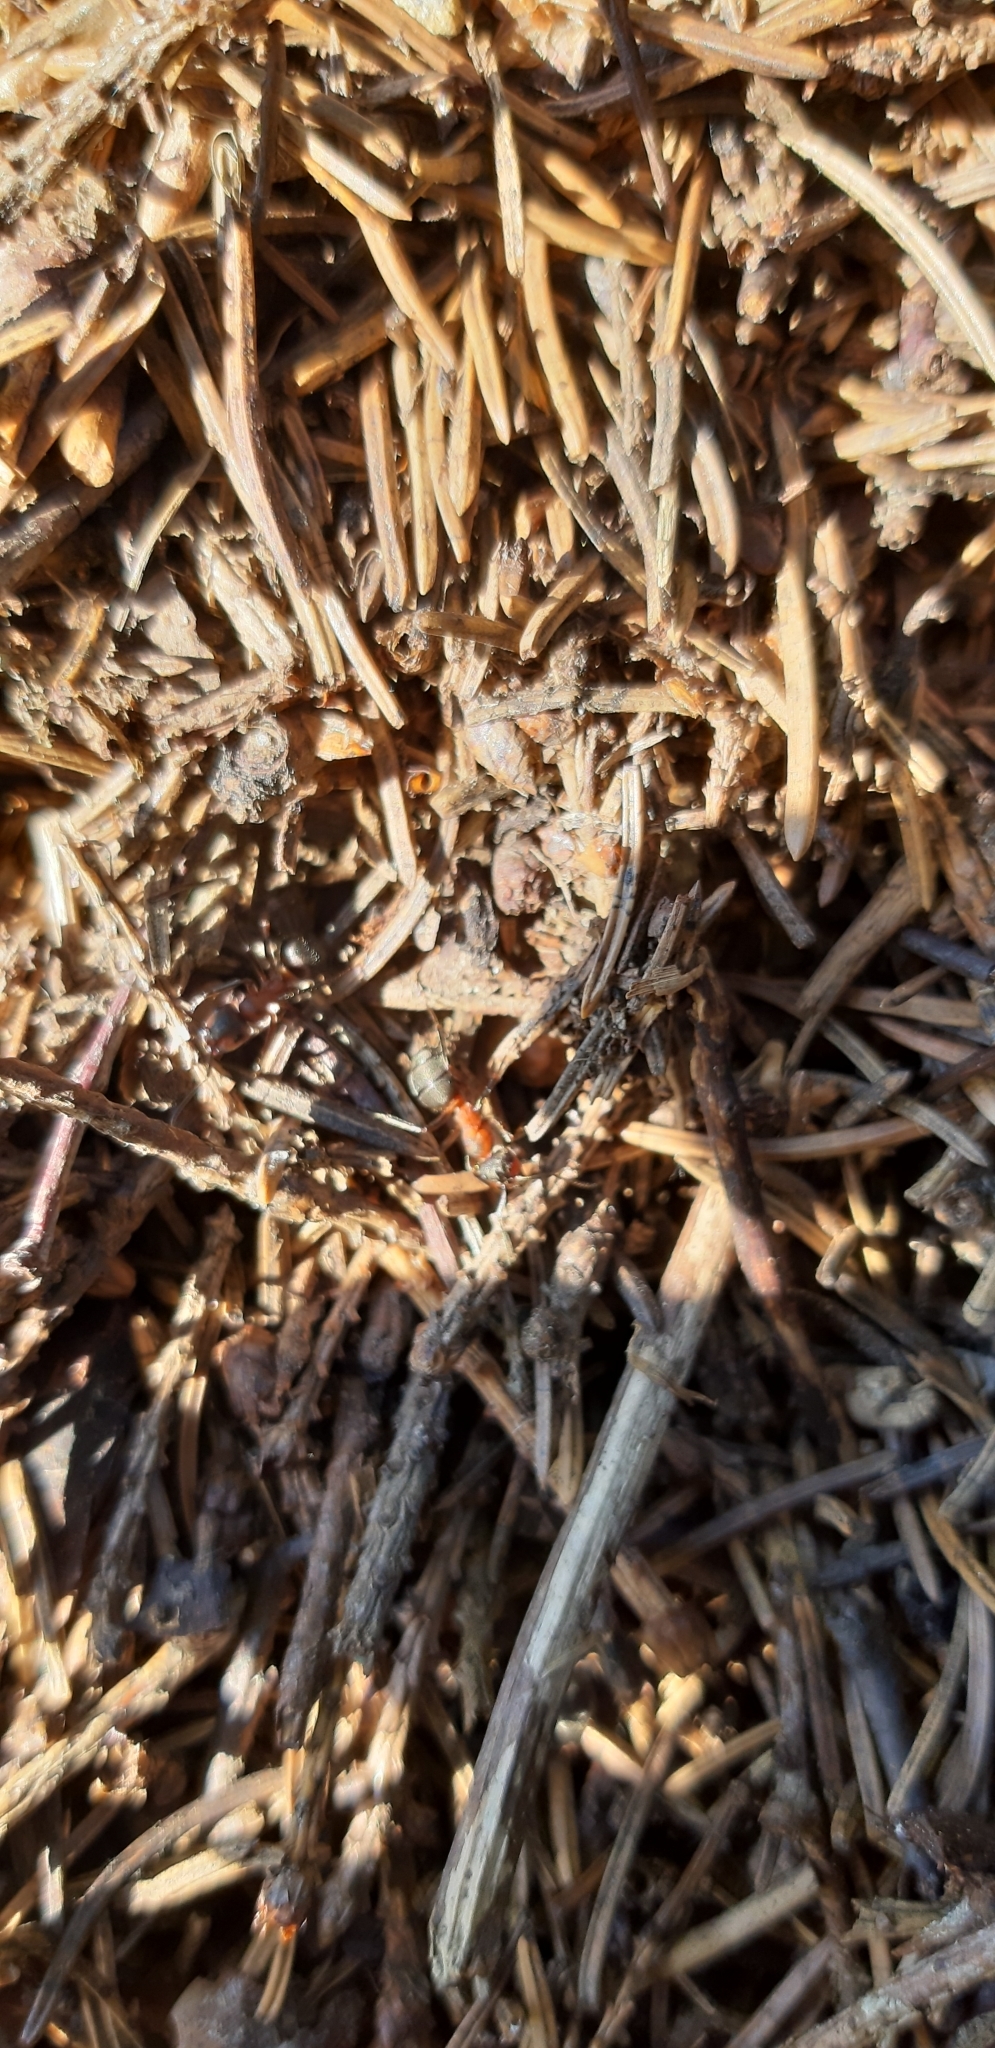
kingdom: Animalia
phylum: Arthropoda
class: Insecta
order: Hymenoptera
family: Formicidae
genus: Formica
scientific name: Formica rufa
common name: Red wood ant
